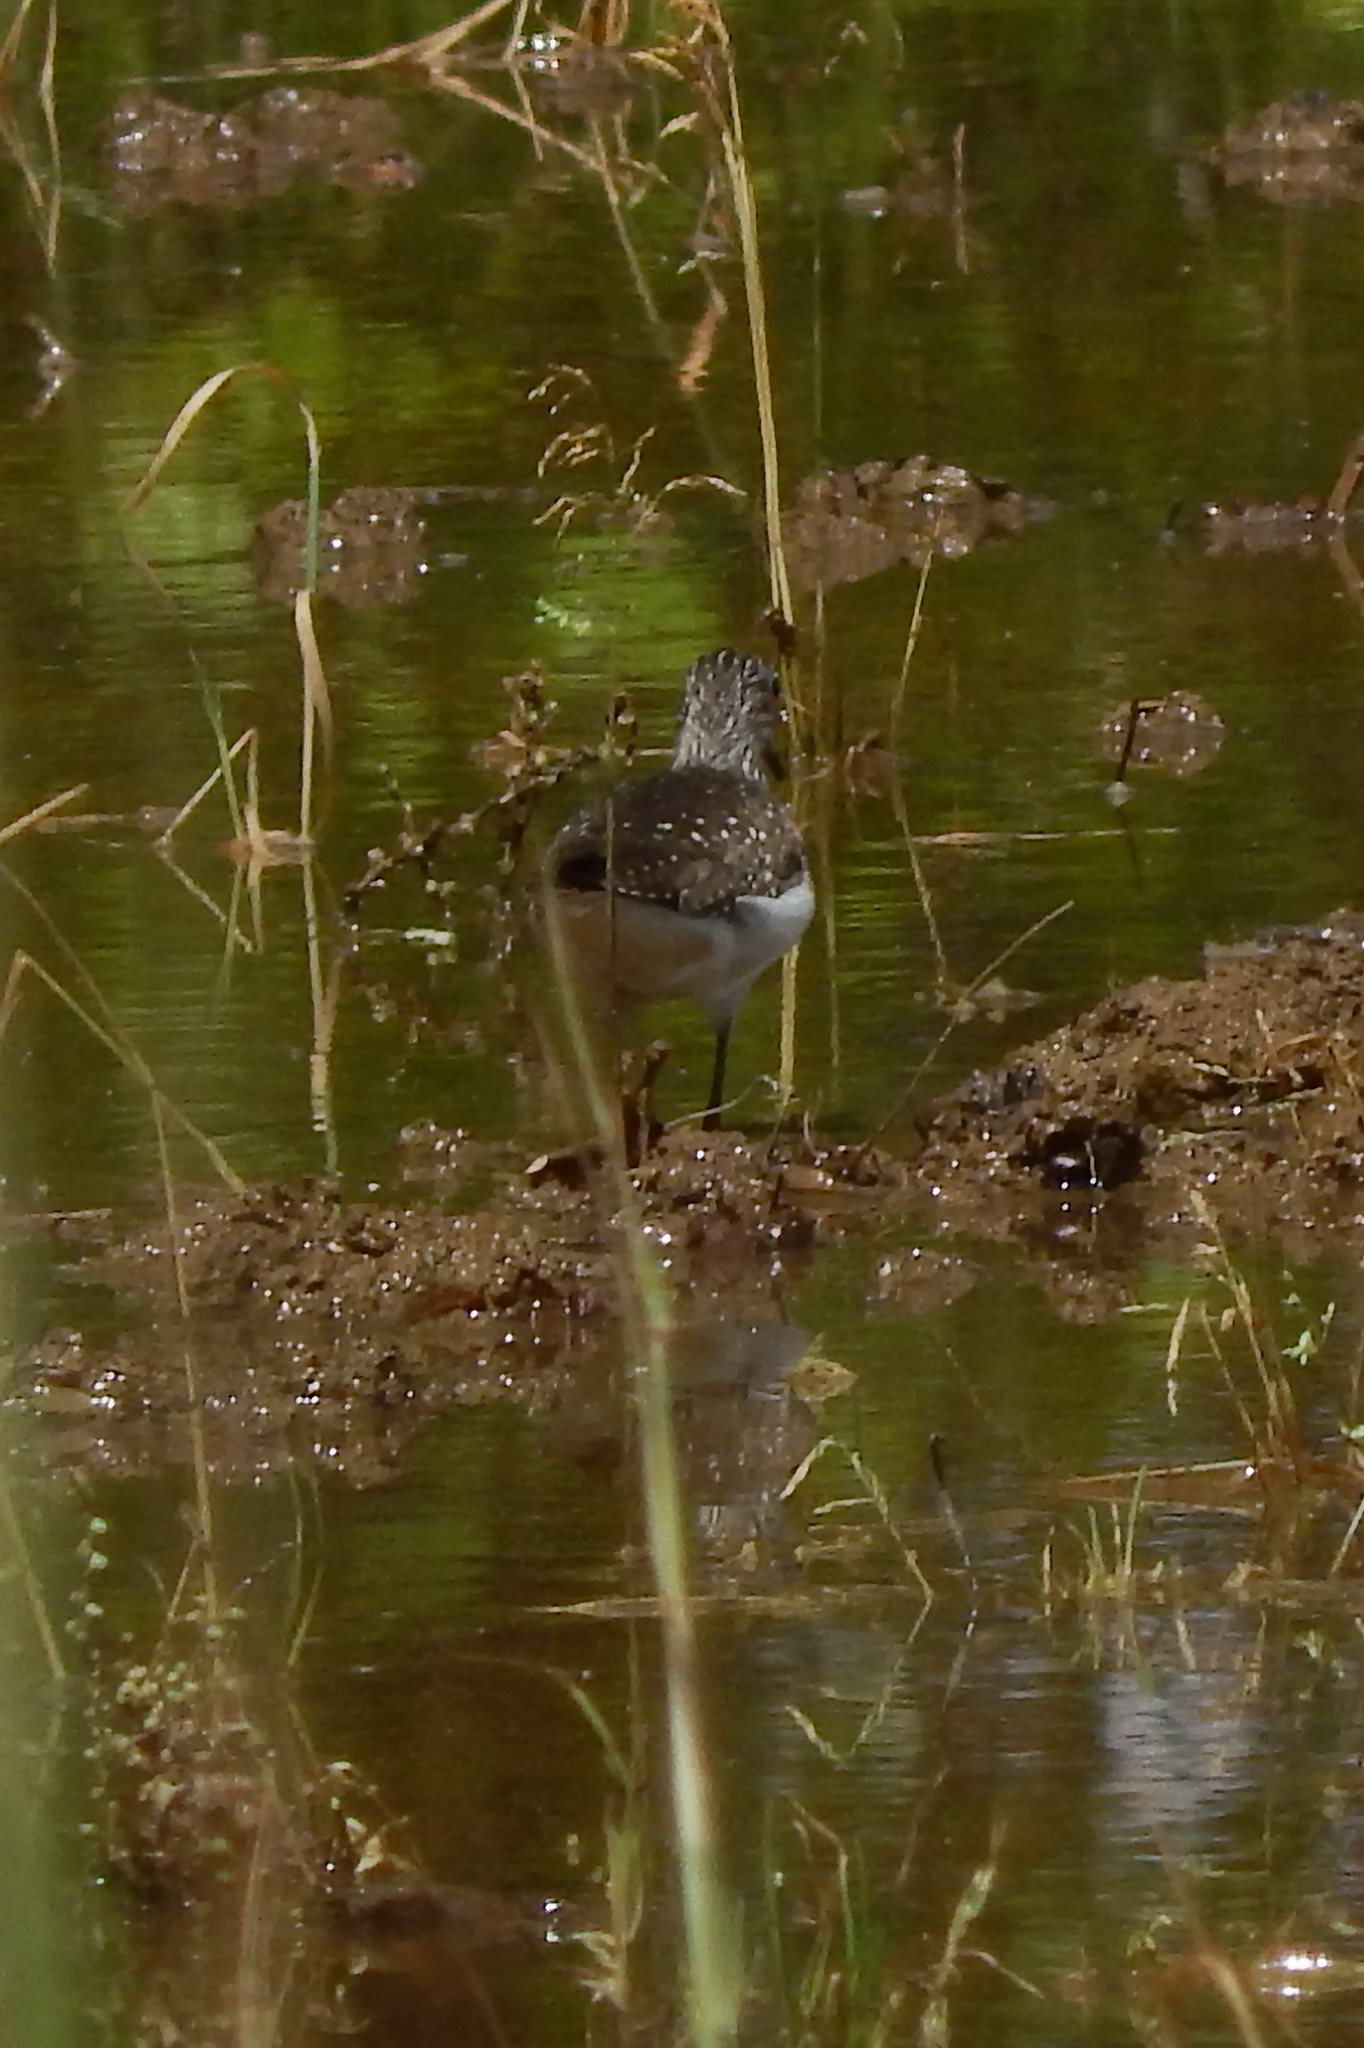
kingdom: Animalia
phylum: Chordata
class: Aves
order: Charadriiformes
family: Scolopacidae
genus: Tringa
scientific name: Tringa solitaria
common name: Solitary sandpiper
